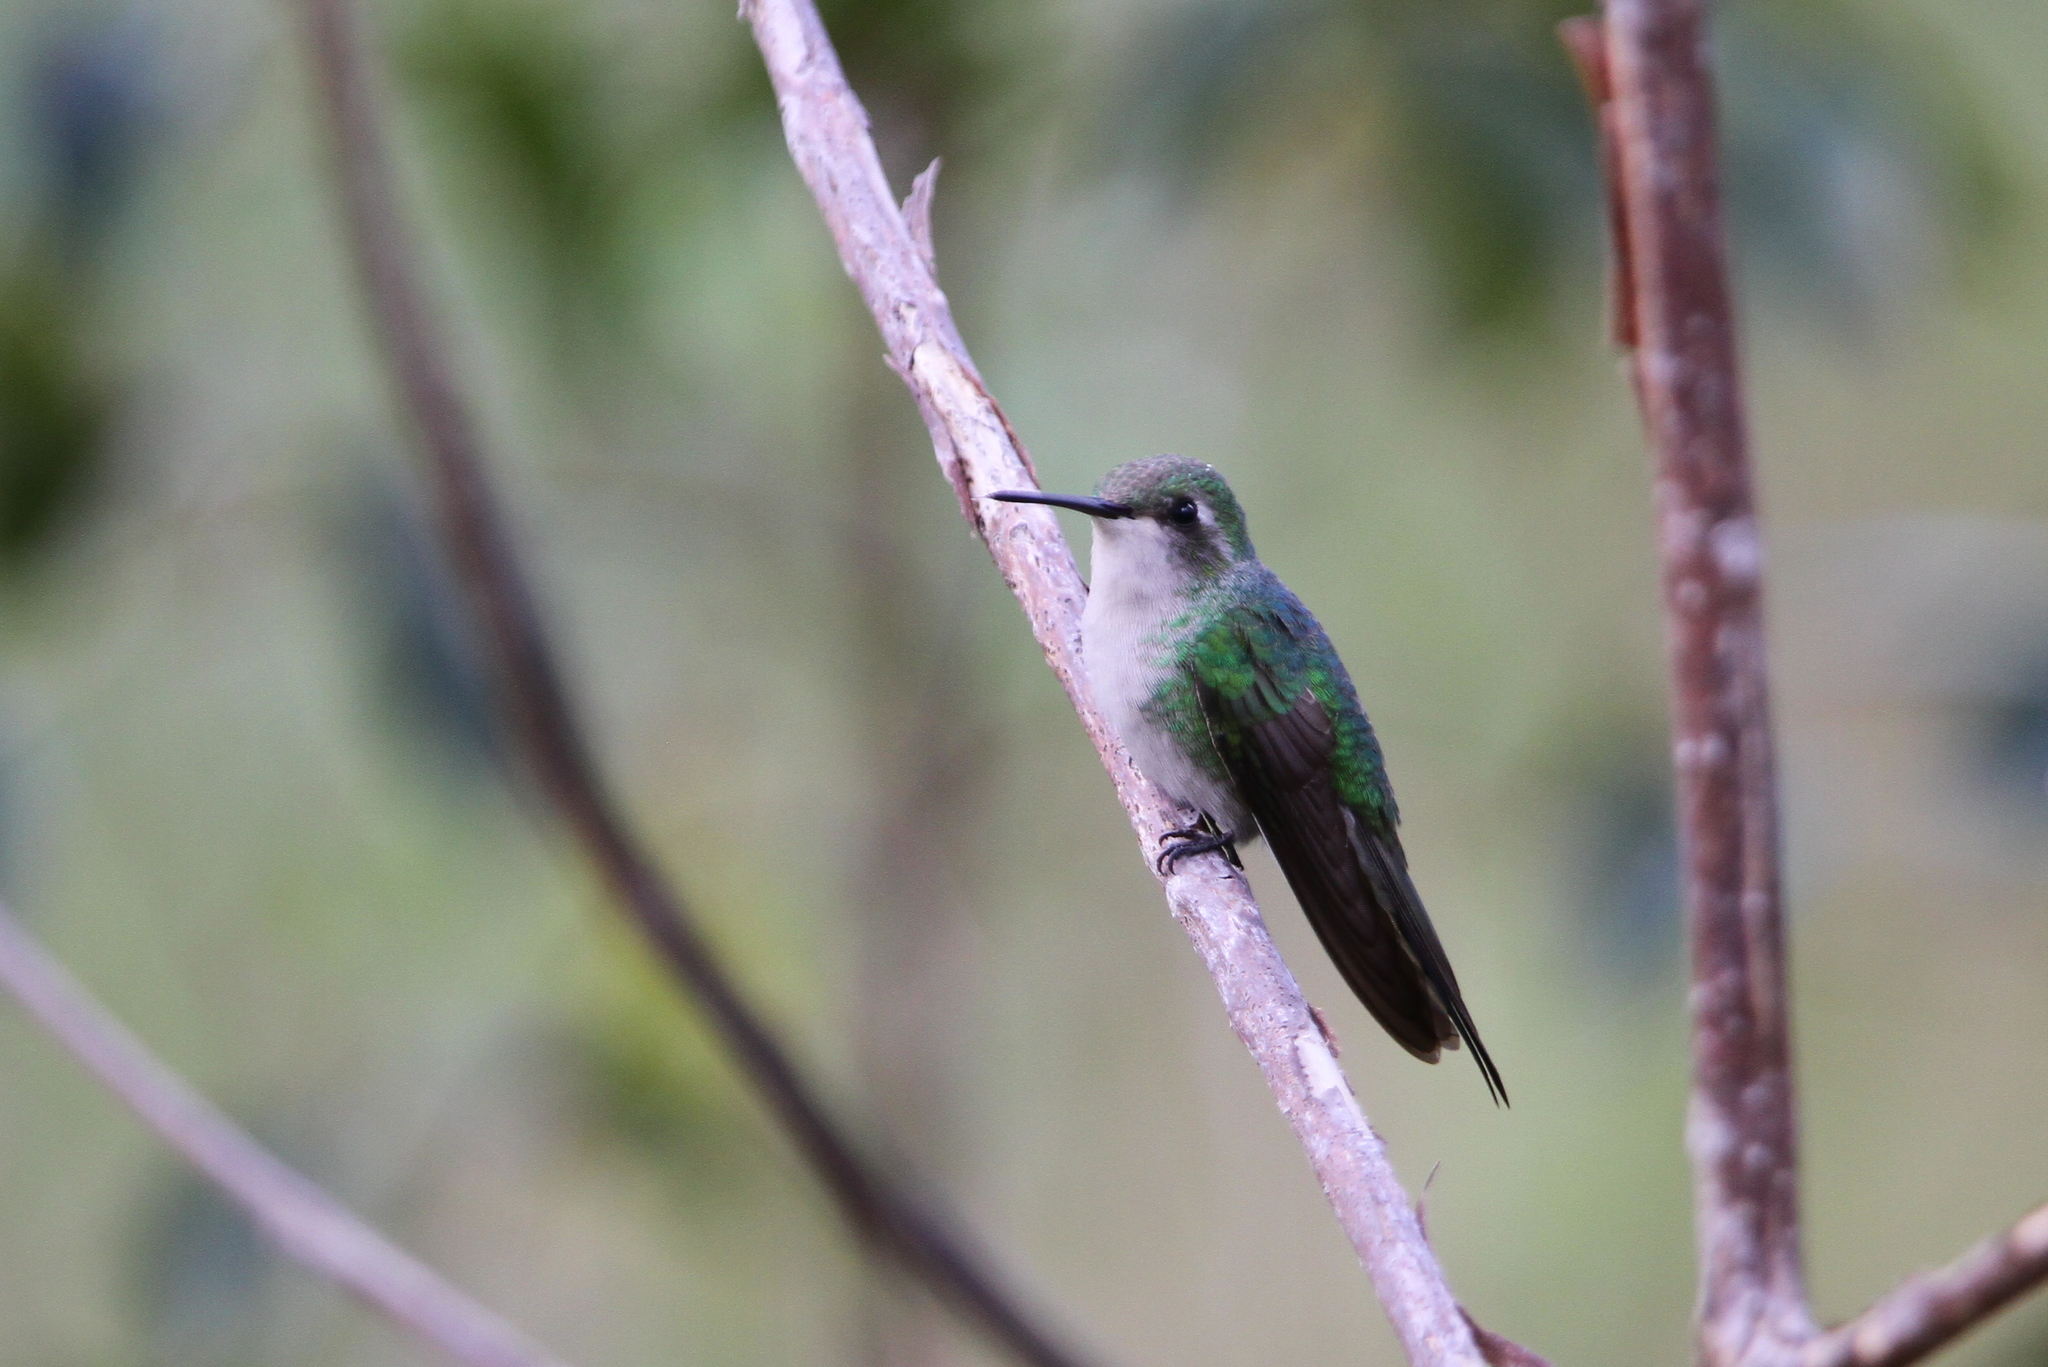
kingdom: Animalia
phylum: Chordata
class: Aves
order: Apodiformes
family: Trochilidae
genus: Riccordia
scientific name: Riccordia ricordii
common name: Cuban emerald
